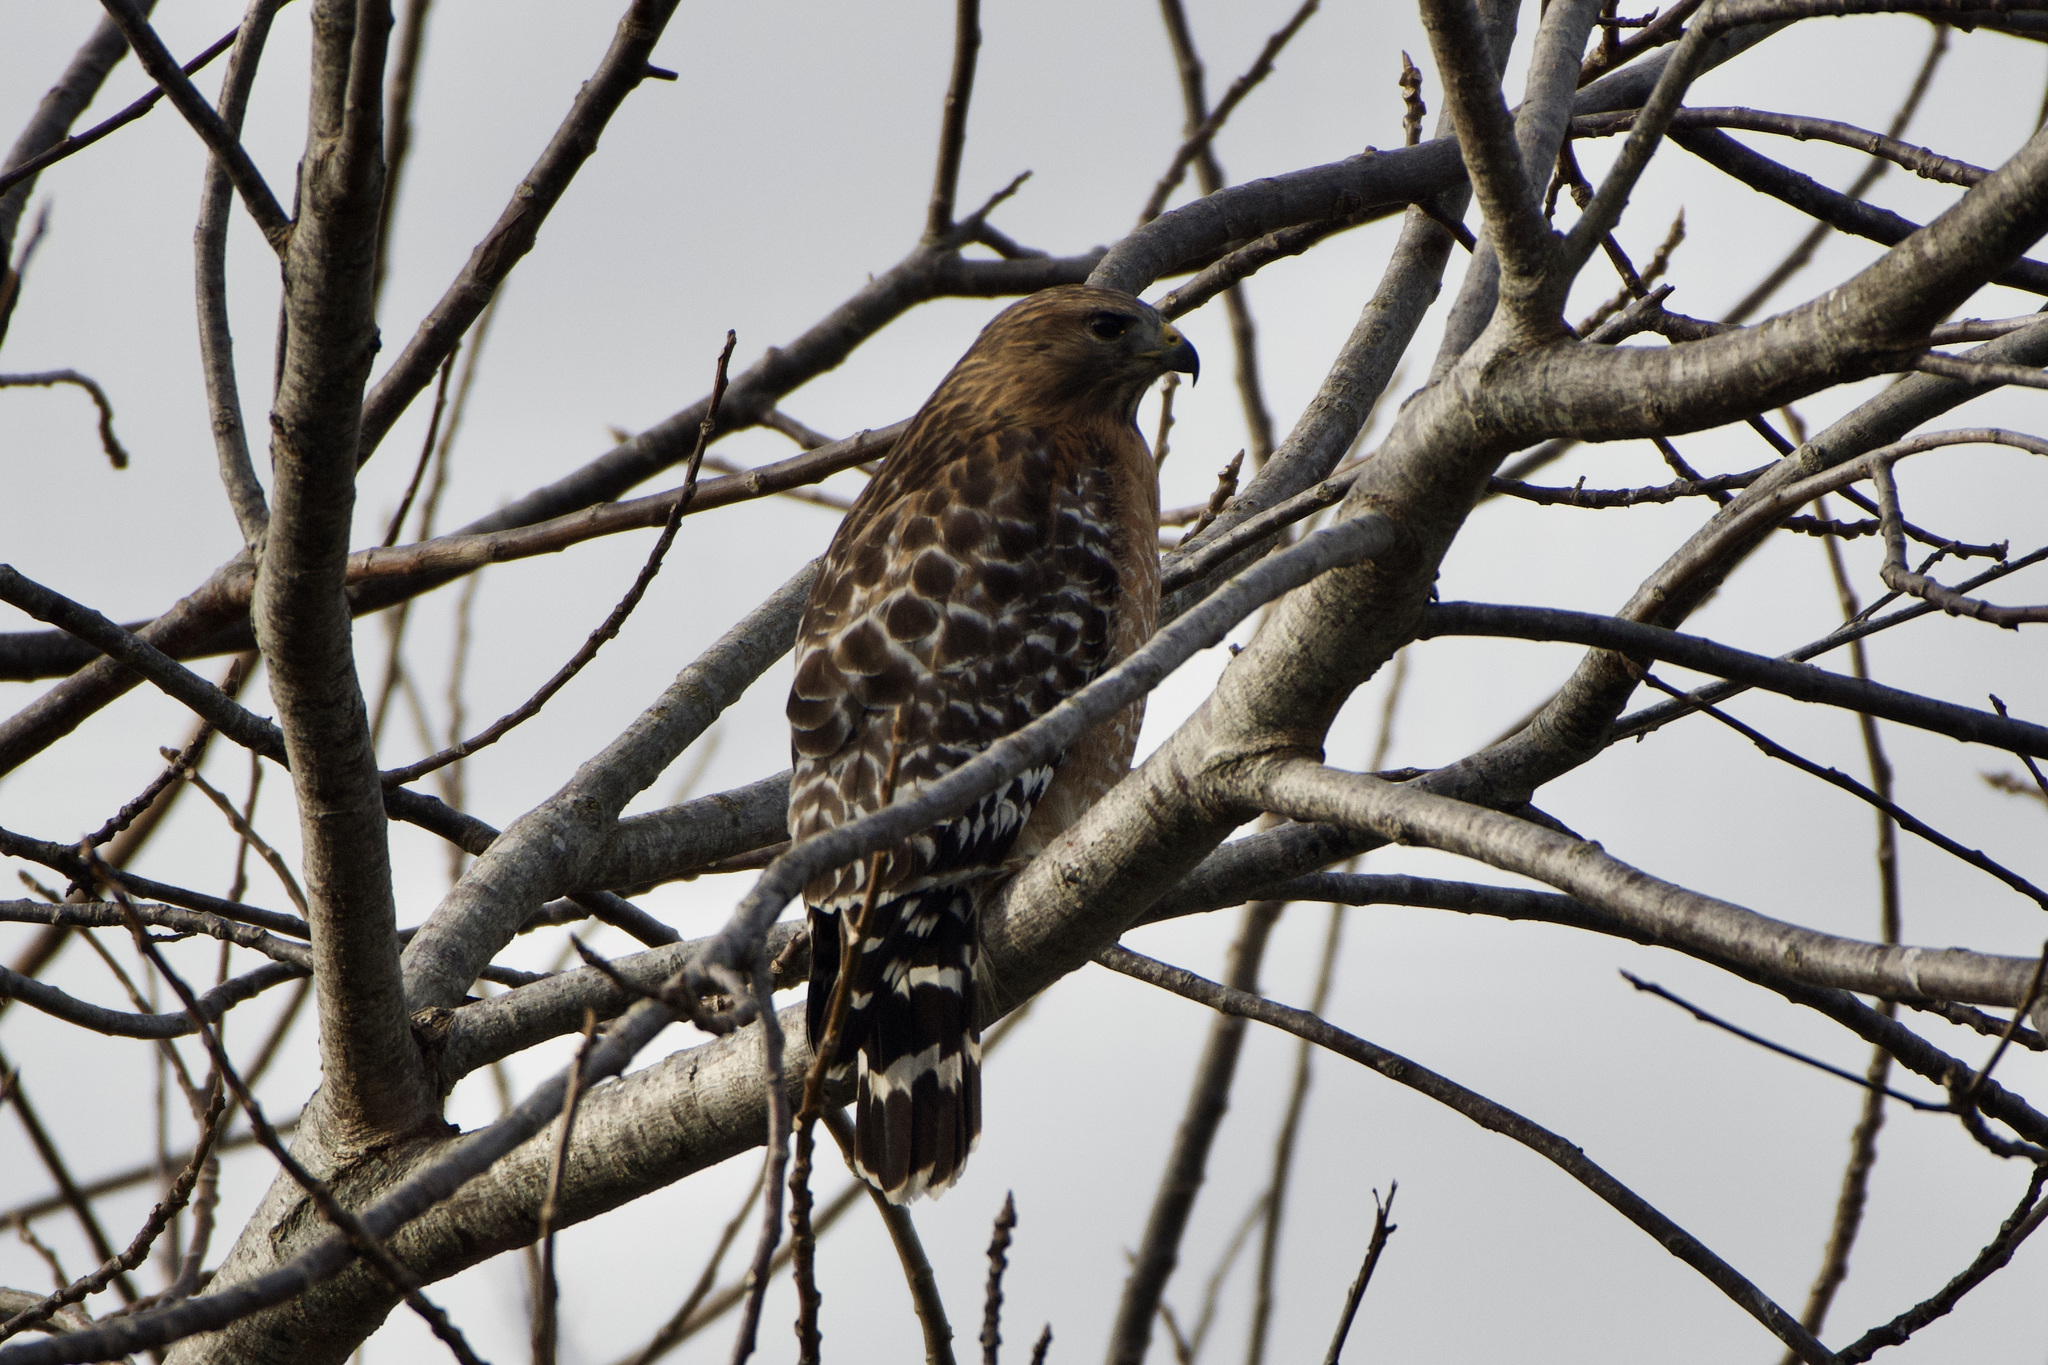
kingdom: Animalia
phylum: Chordata
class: Aves
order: Accipitriformes
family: Accipitridae
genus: Buteo
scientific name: Buteo lineatus
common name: Red-shouldered hawk
